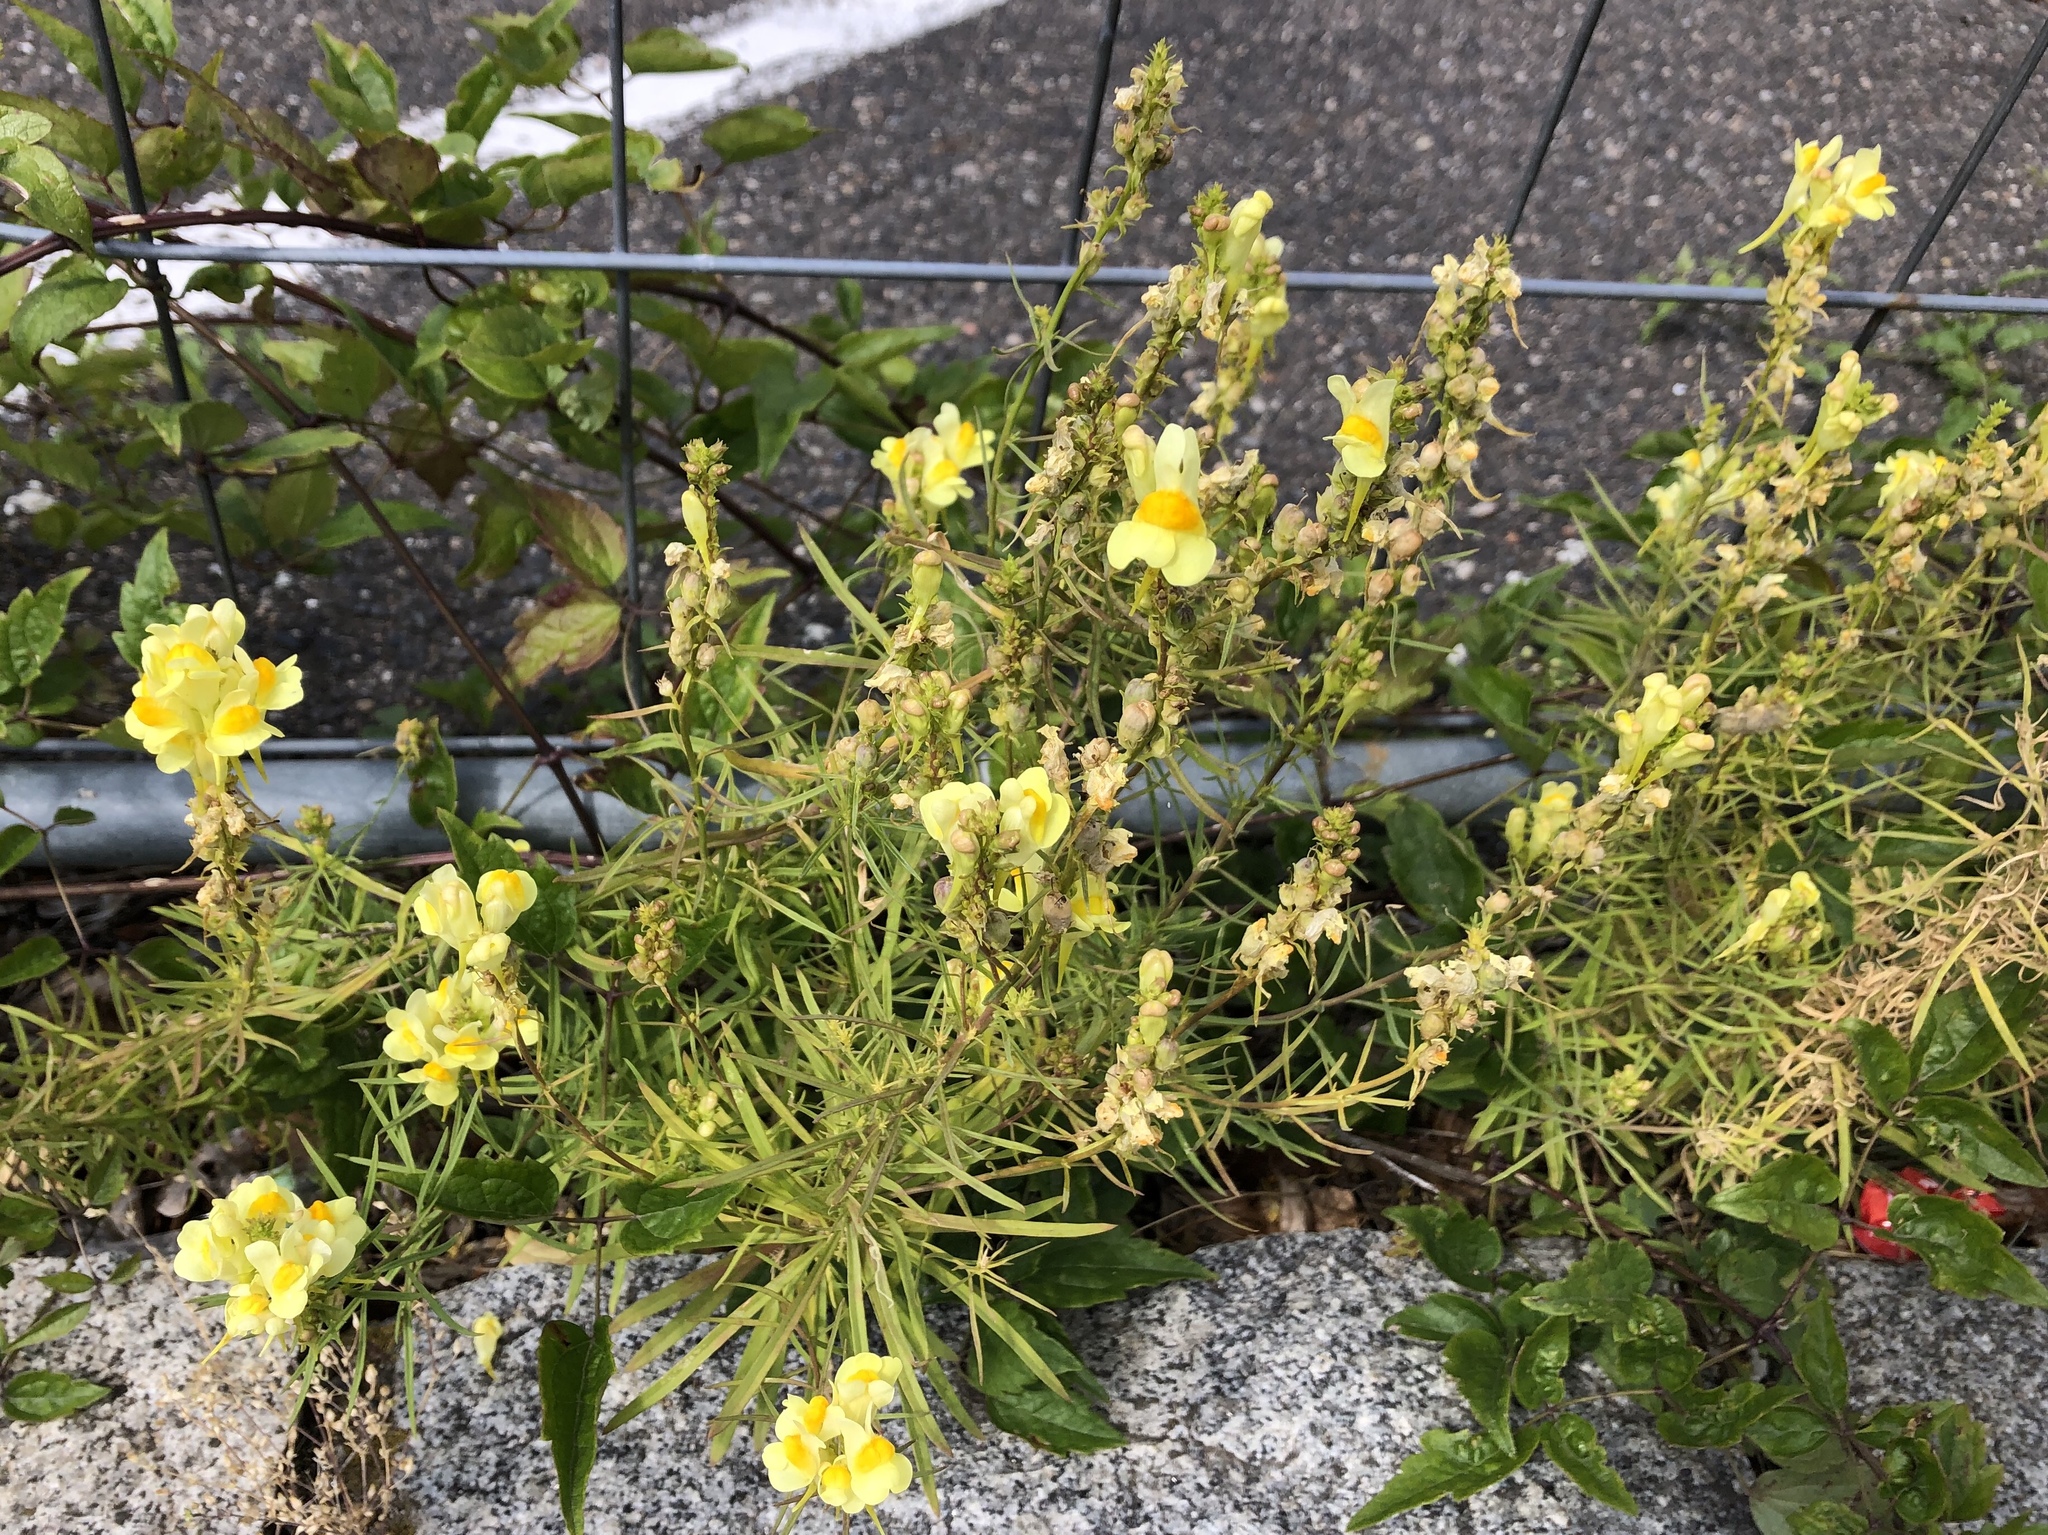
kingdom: Plantae
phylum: Tracheophyta
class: Magnoliopsida
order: Lamiales
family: Plantaginaceae
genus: Linaria
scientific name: Linaria vulgaris
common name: Butter and eggs
